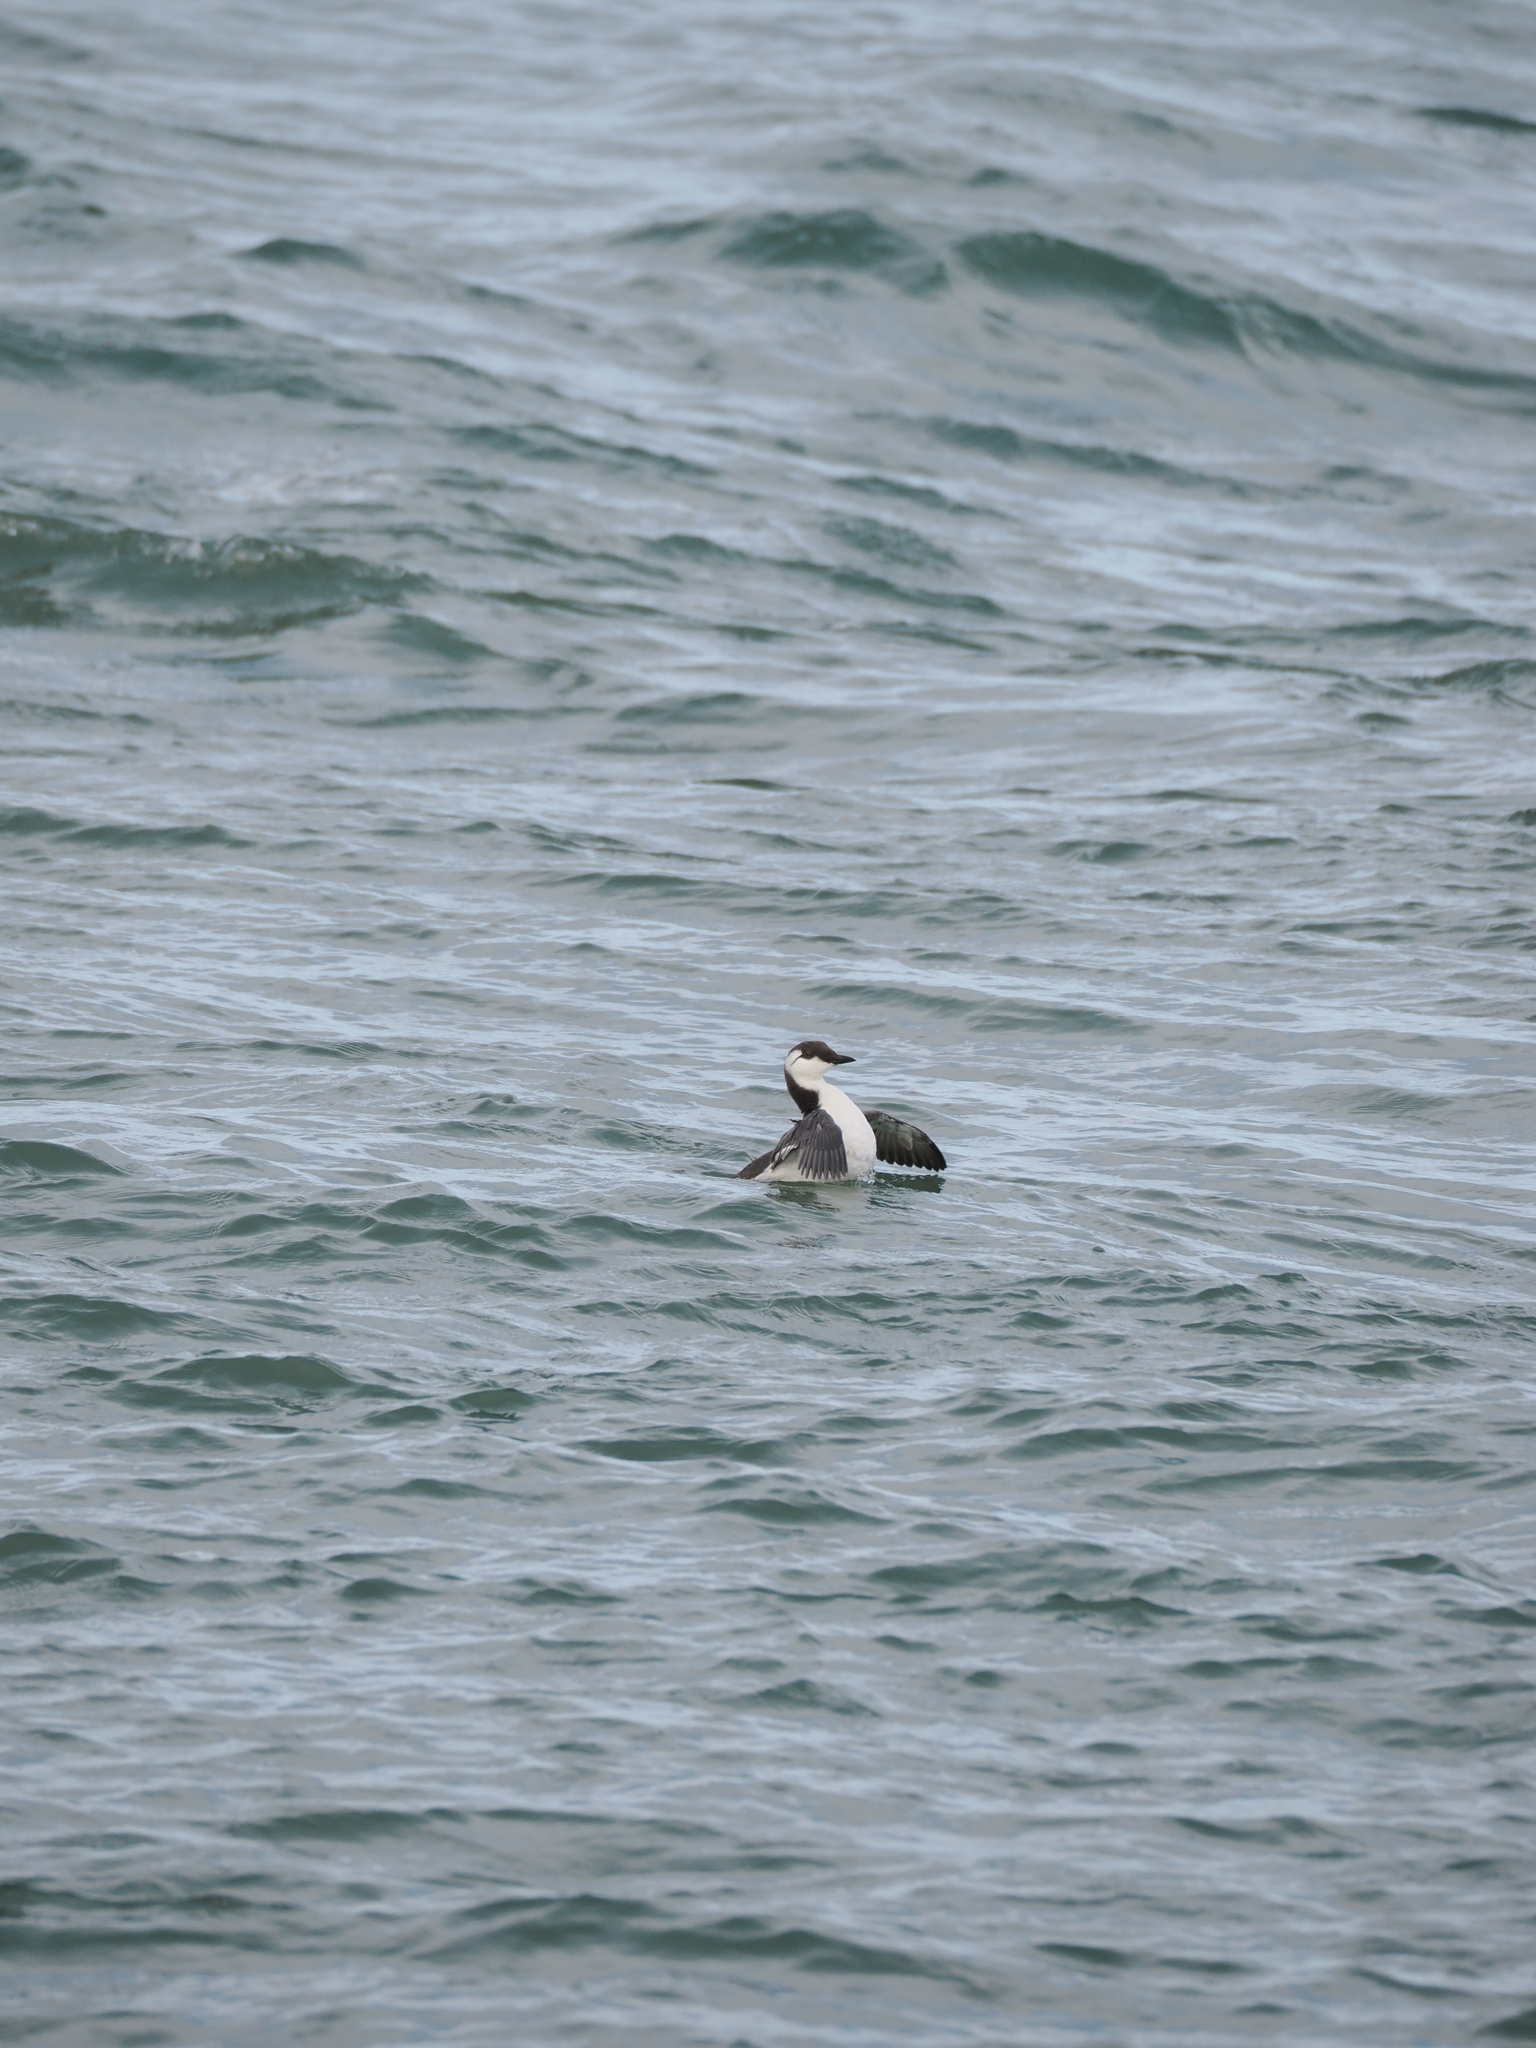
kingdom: Animalia
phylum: Chordata
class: Aves
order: Charadriiformes
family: Alcidae
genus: Uria
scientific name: Uria aalge
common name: Common murre
